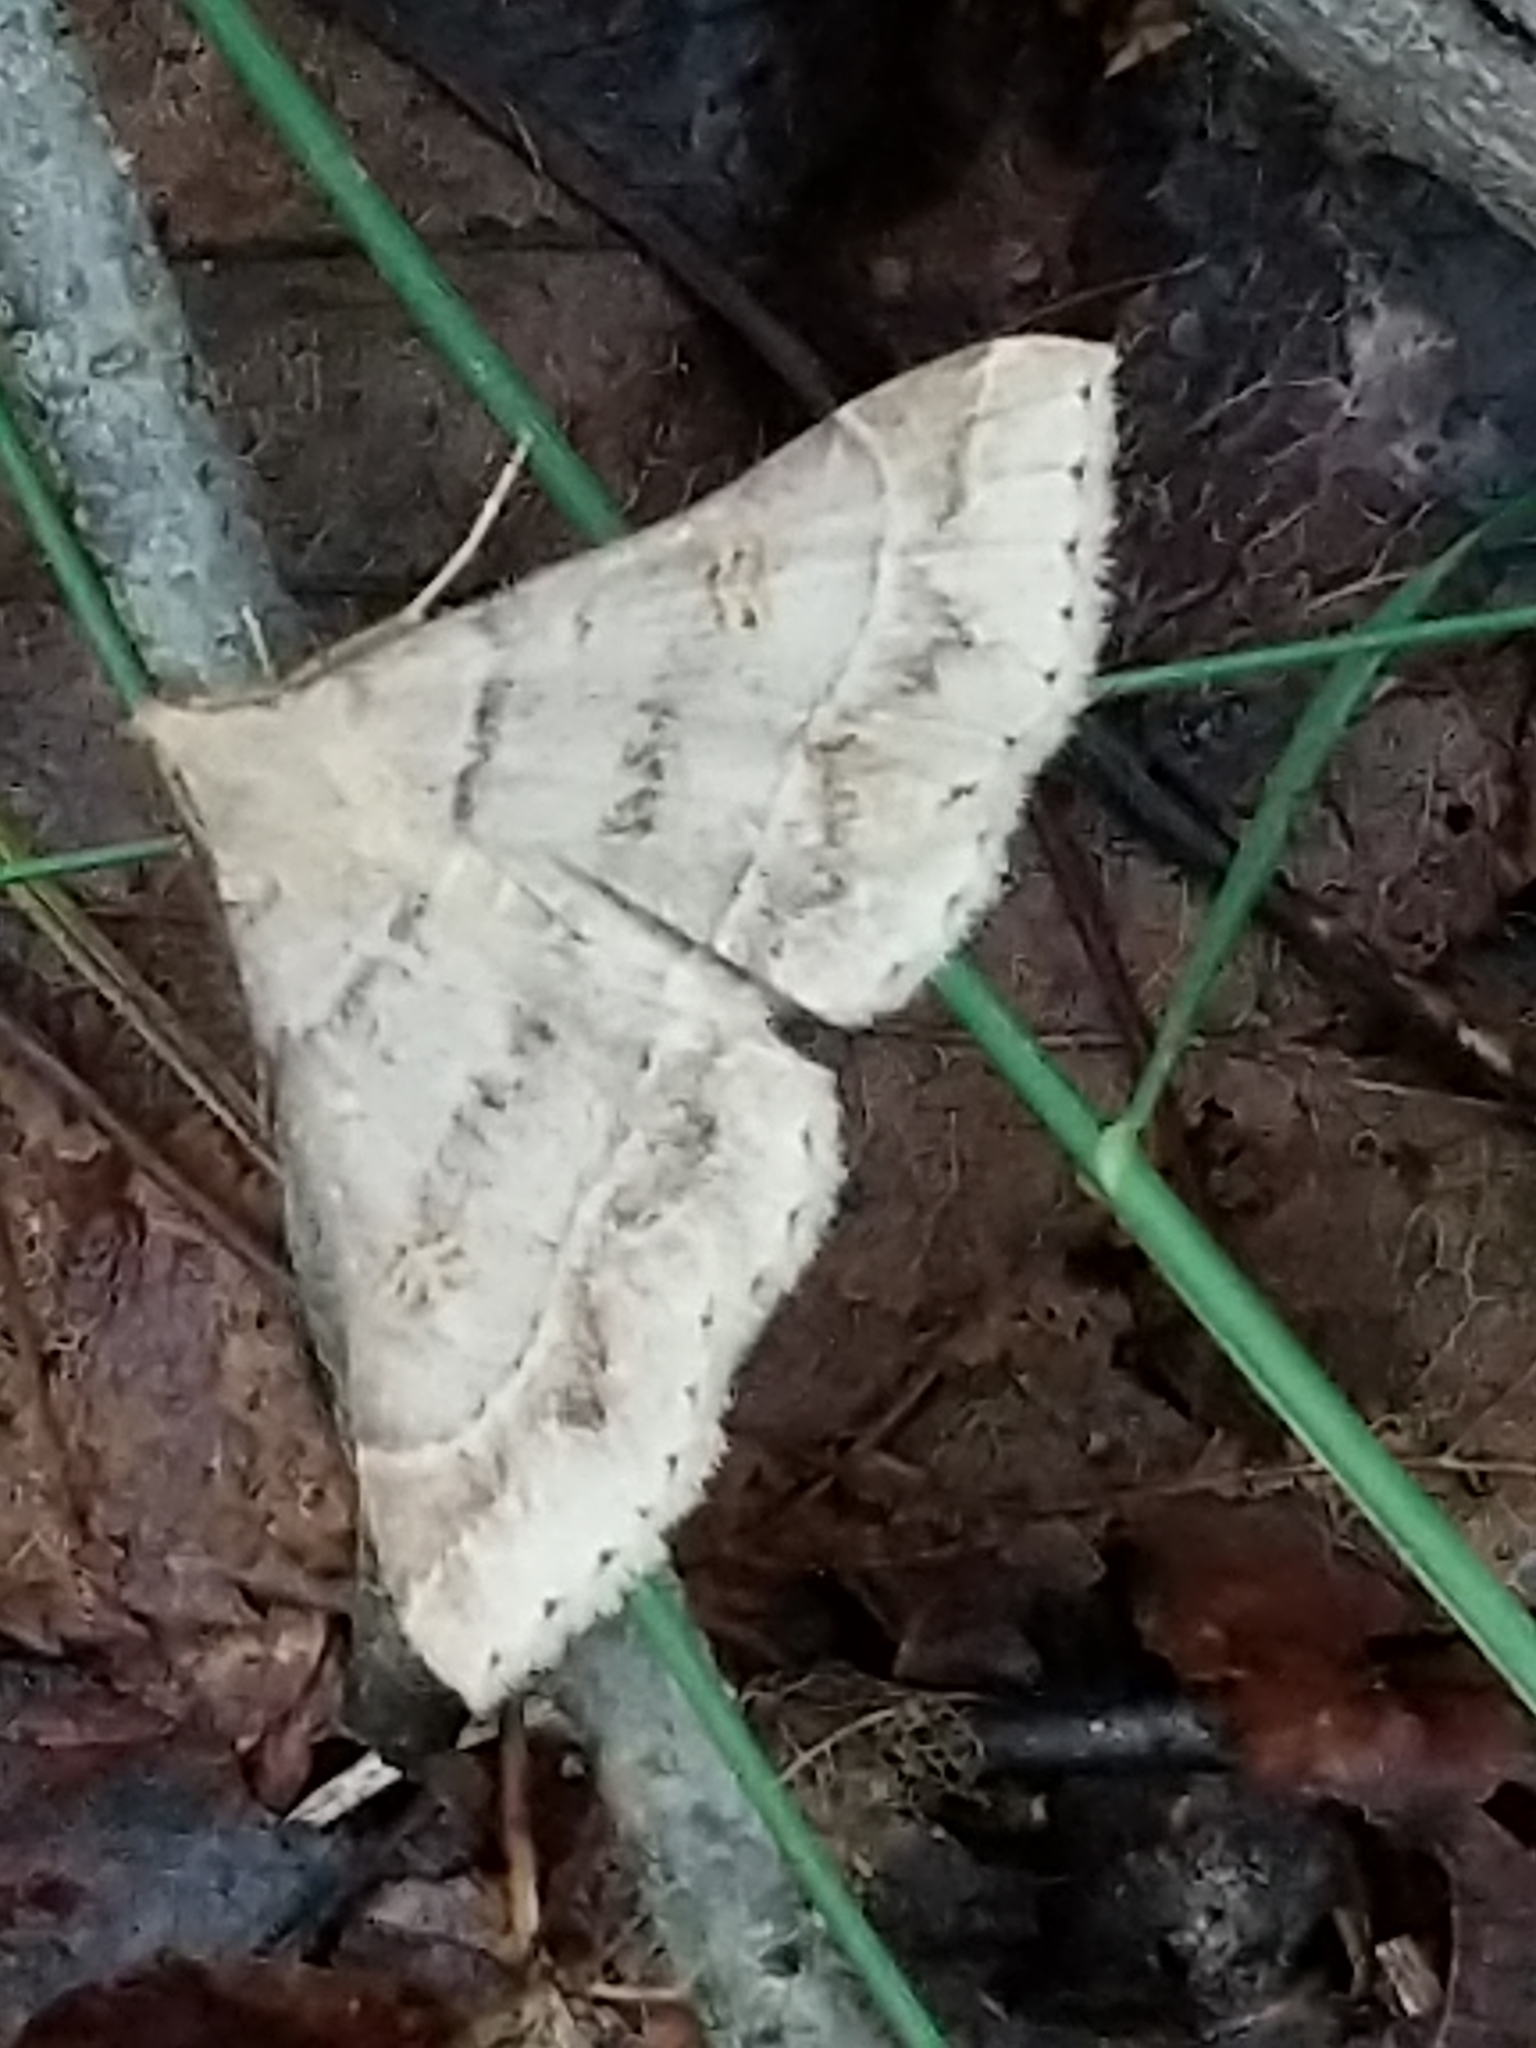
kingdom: Animalia
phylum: Arthropoda
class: Insecta
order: Lepidoptera
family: Erebidae
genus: Renia
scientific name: Renia flavipunctalis
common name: Yellow-spotted renia moth
